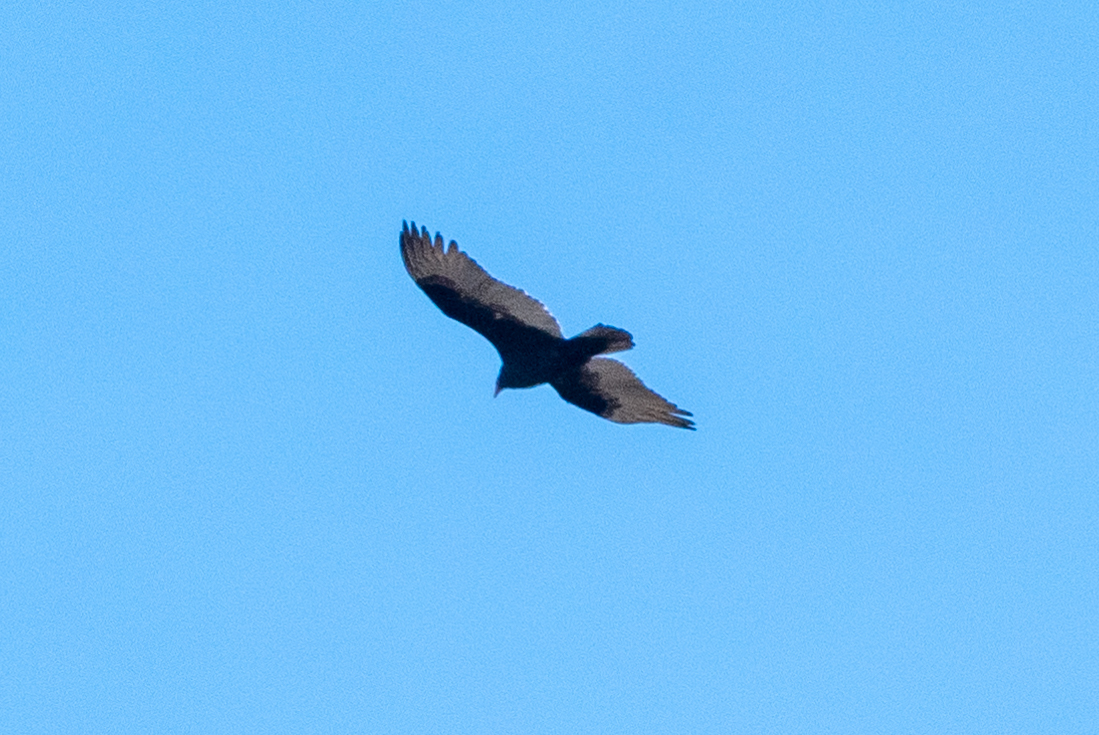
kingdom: Animalia
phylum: Chordata
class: Aves
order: Accipitriformes
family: Cathartidae
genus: Cathartes
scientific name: Cathartes aura
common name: Turkey vulture
